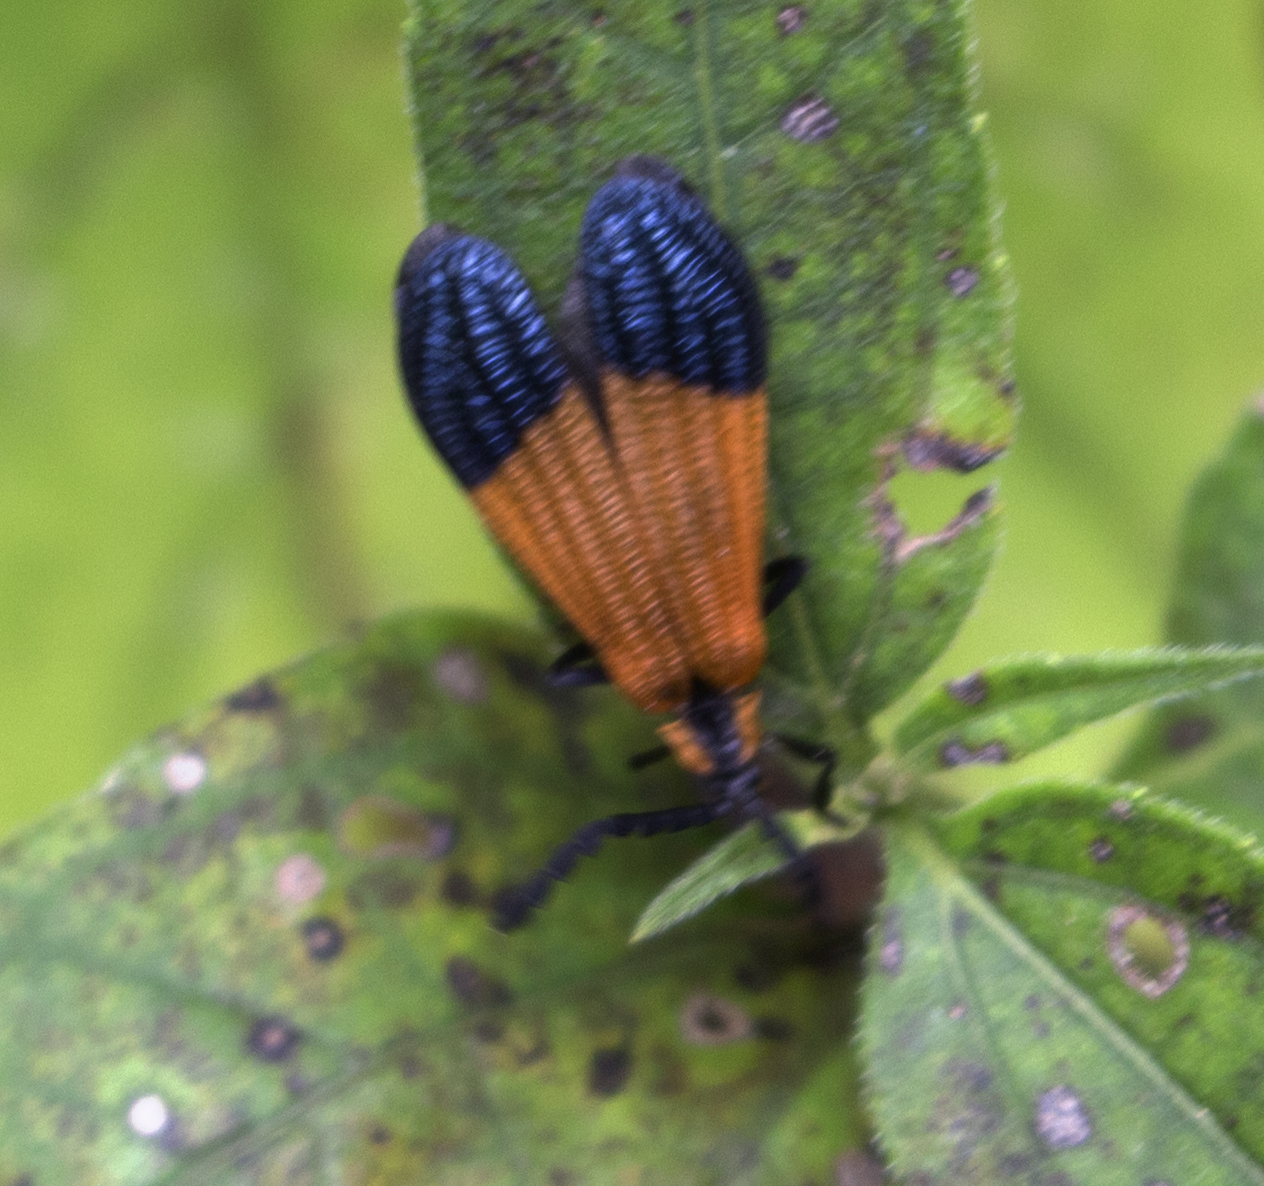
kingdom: Animalia
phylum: Arthropoda
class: Insecta
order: Coleoptera
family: Lycidae
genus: Calopteron
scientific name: Calopteron terminale
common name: End band net-winged beetle
